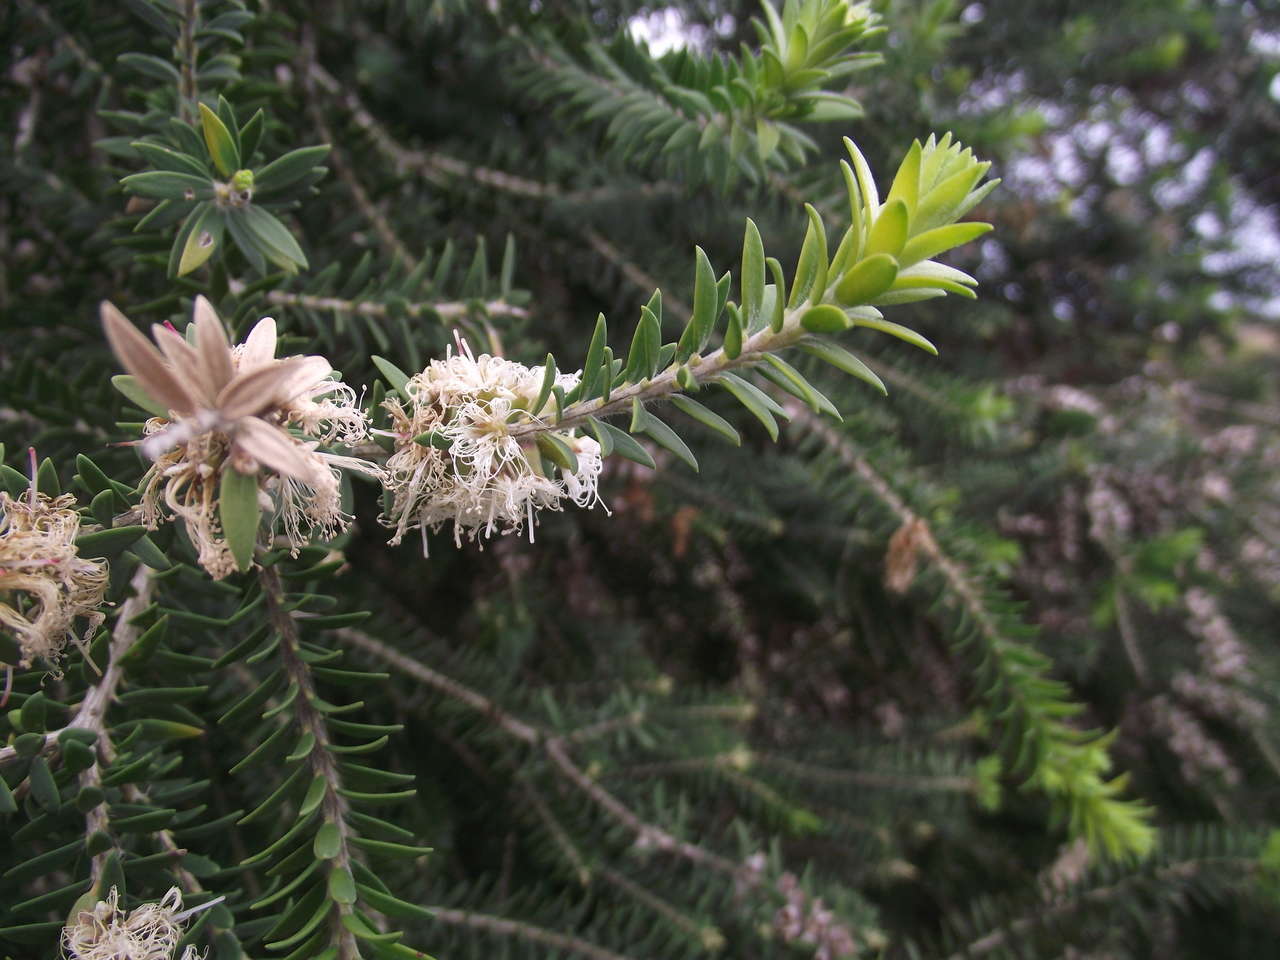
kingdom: Plantae
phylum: Tracheophyta
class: Magnoliopsida
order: Myrtales
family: Myrtaceae
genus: Melaleuca
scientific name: Melaleuca lanceolata
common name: Rottnest island teatree
